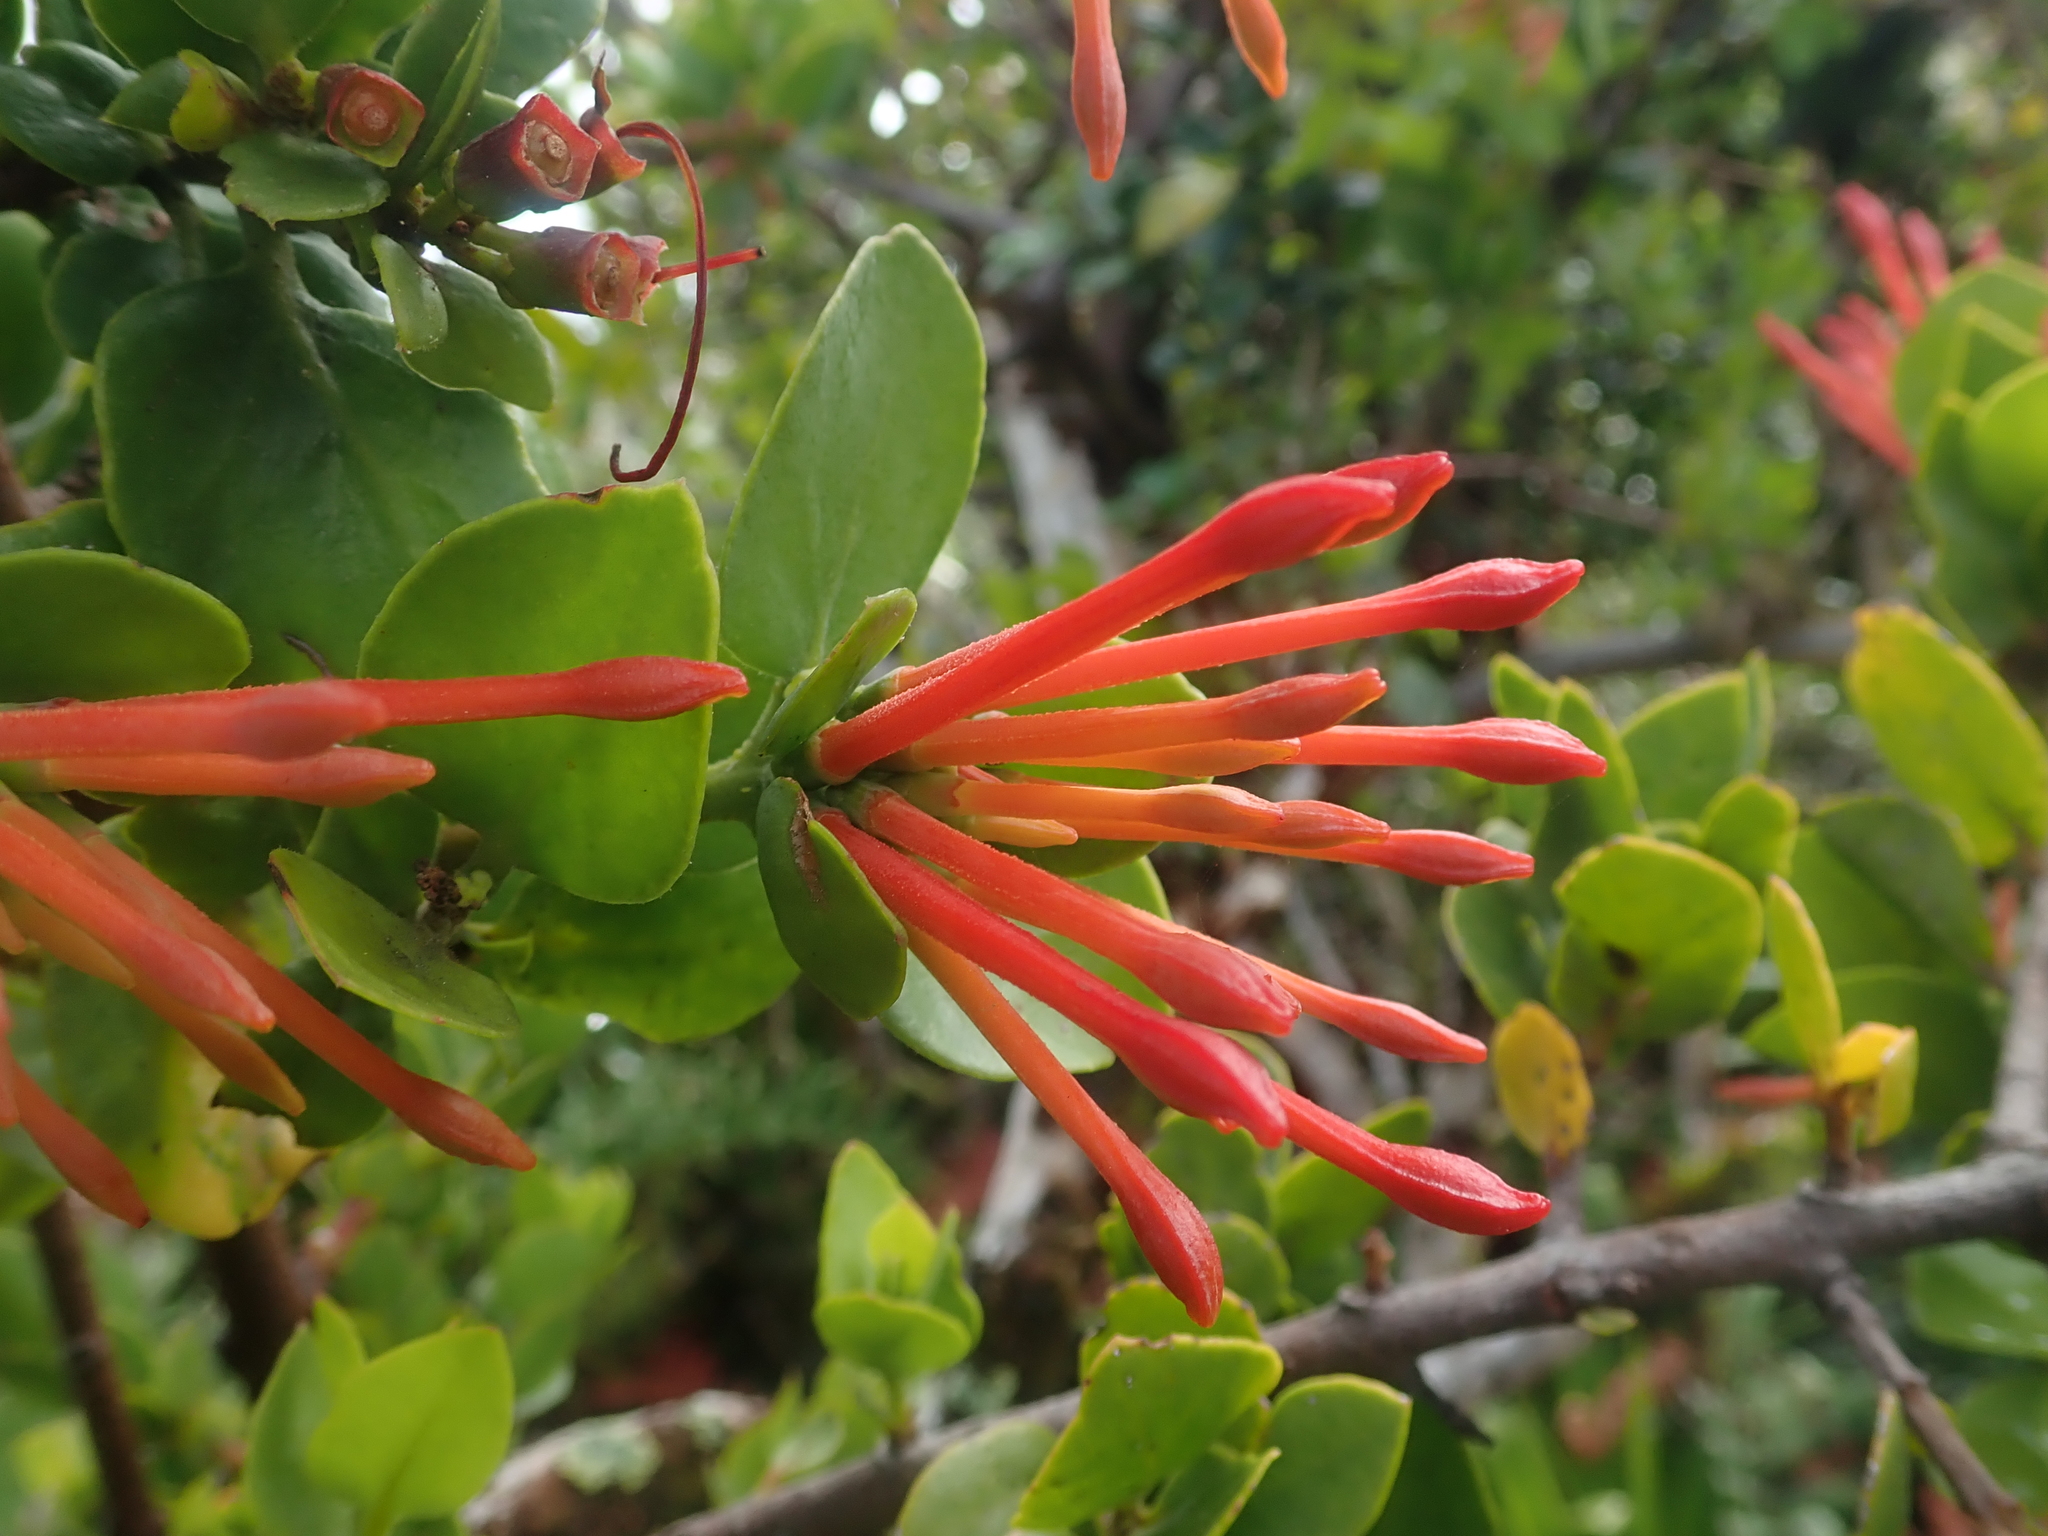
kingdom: Plantae
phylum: Tracheophyta
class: Magnoliopsida
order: Santalales
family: Loranthaceae
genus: Tristerix
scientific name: Tristerix corymbosus
